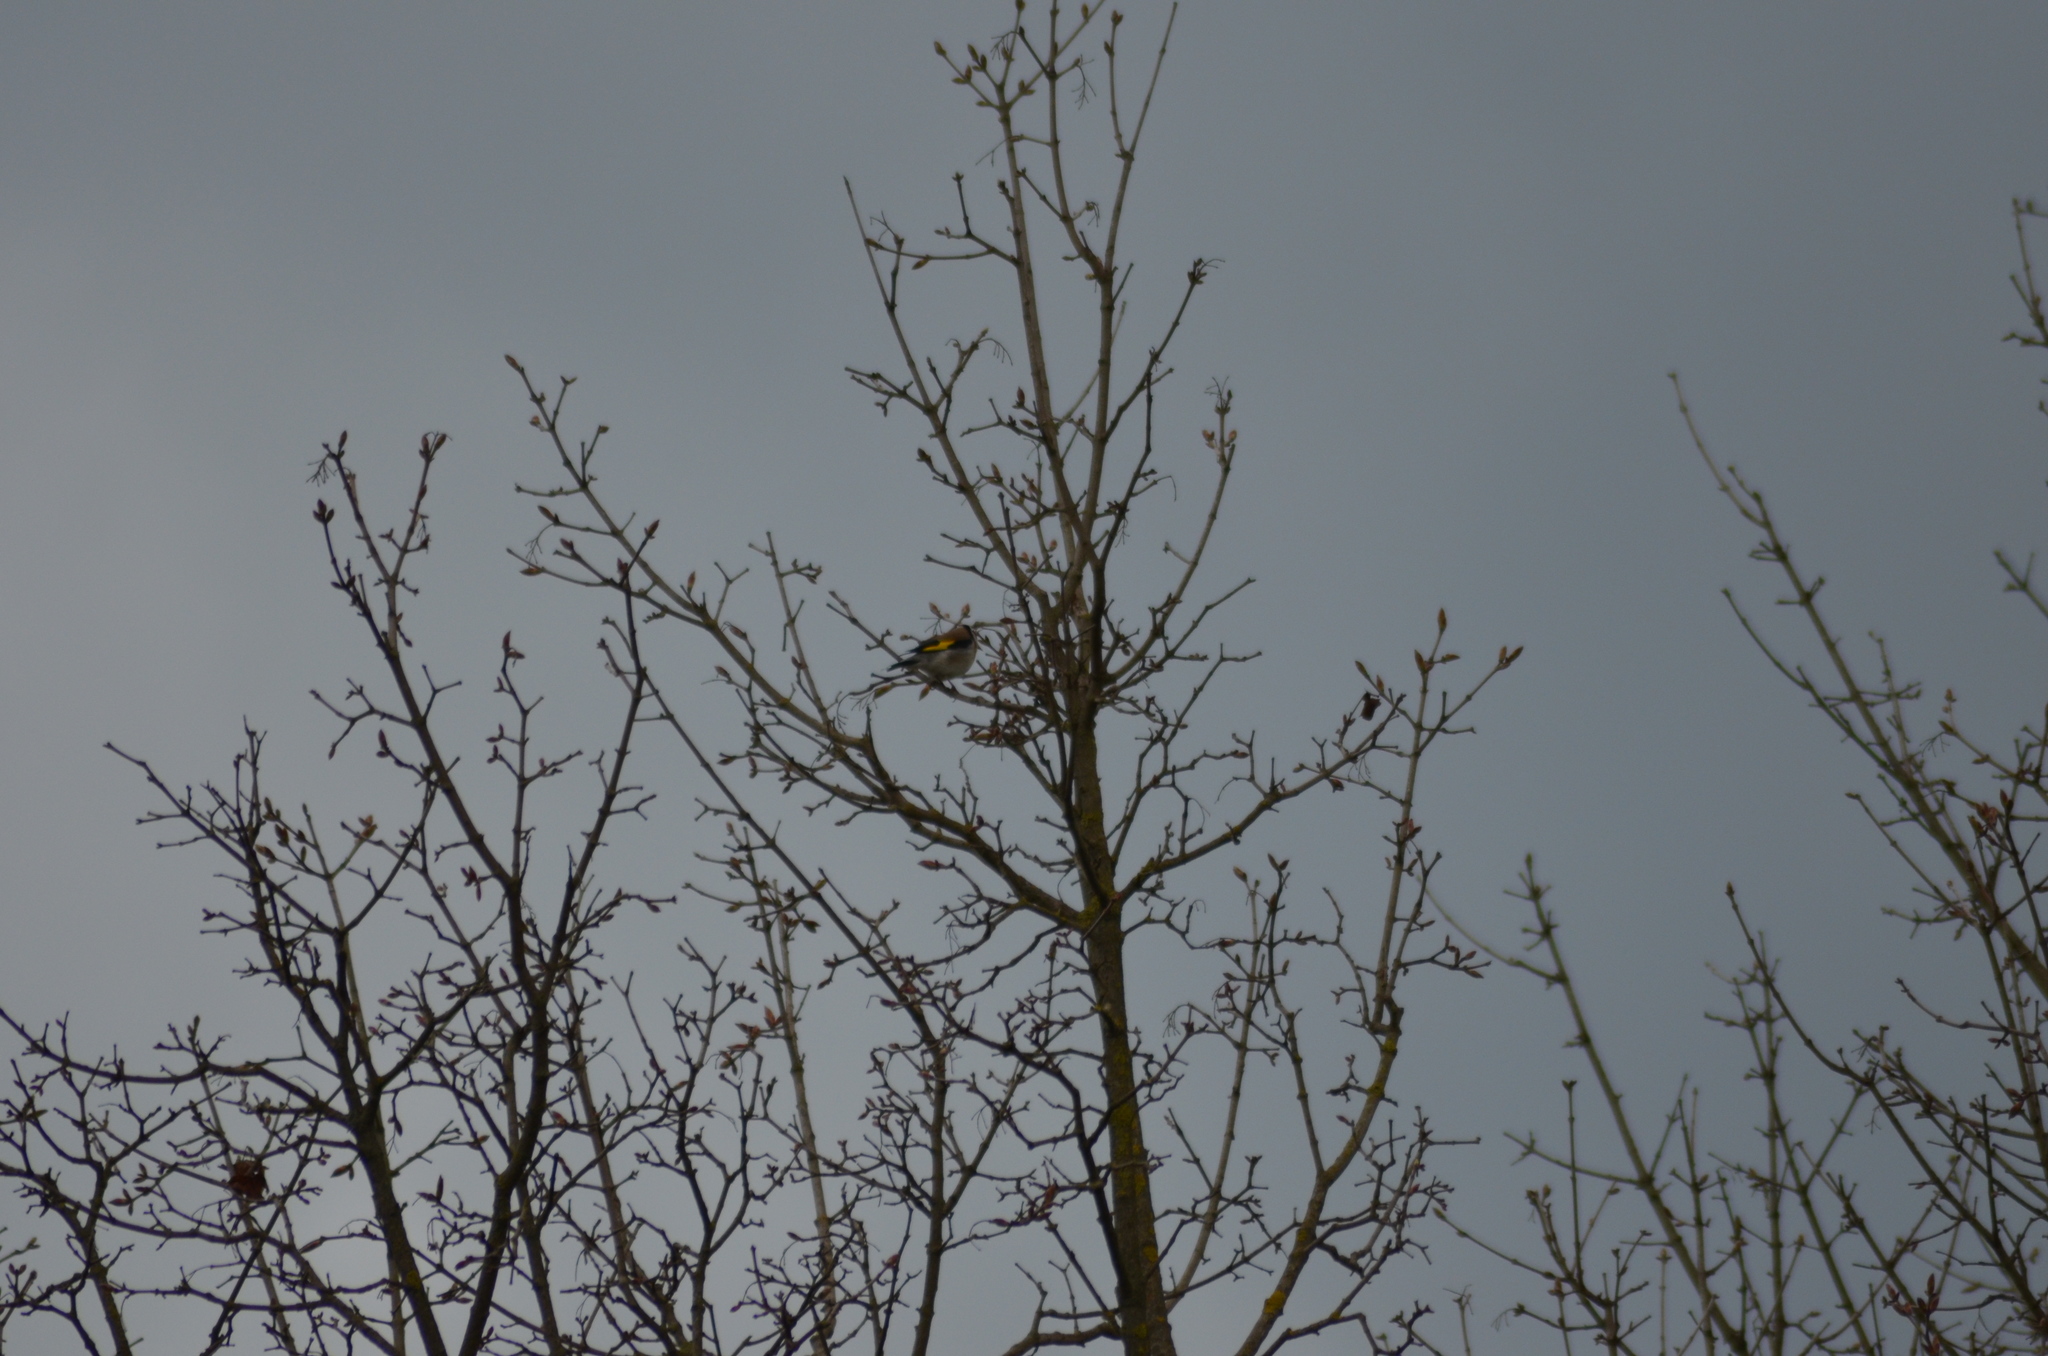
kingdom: Animalia
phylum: Chordata
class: Aves
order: Passeriformes
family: Fringillidae
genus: Carduelis
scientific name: Carduelis carduelis
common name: European goldfinch
